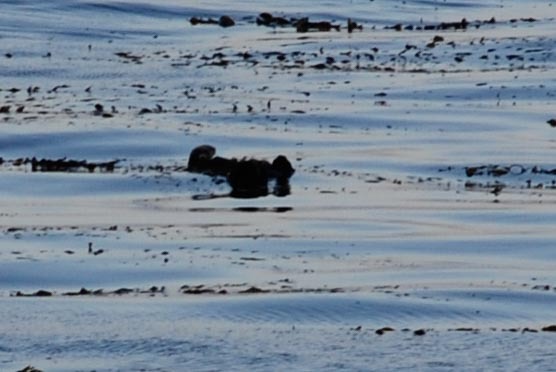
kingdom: Animalia
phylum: Chordata
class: Mammalia
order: Carnivora
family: Mustelidae
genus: Enhydra
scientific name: Enhydra lutris
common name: Sea otter
